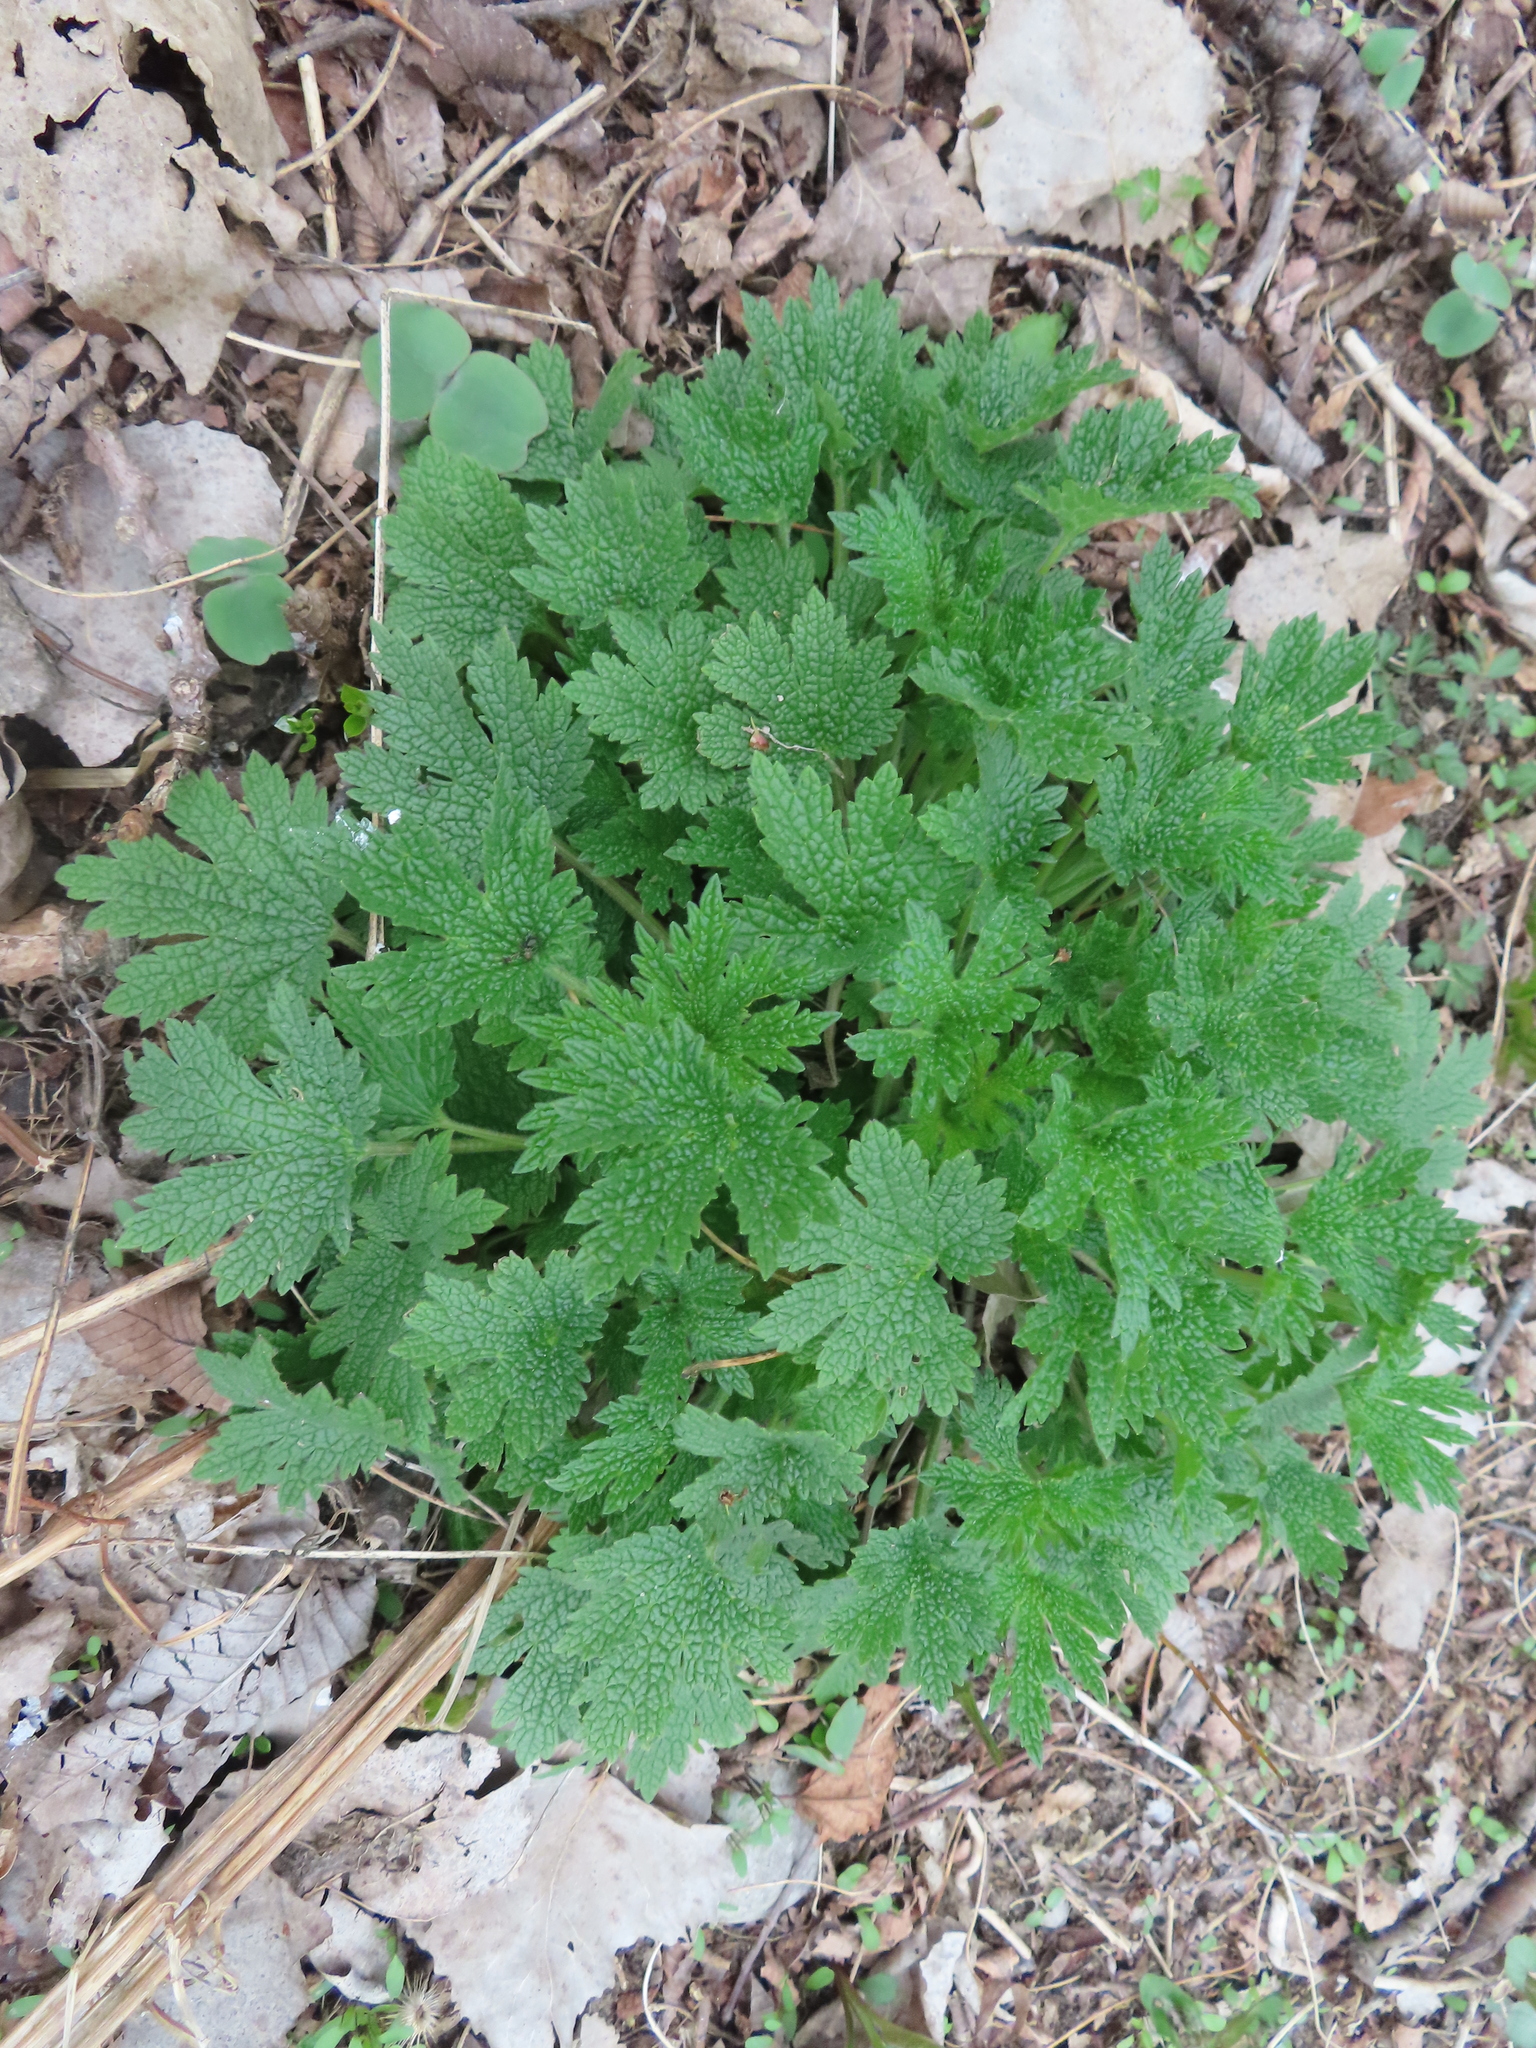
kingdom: Plantae
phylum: Tracheophyta
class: Magnoliopsida
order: Lamiales
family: Lamiaceae
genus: Leonurus
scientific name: Leonurus cardiaca
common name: Motherwort
